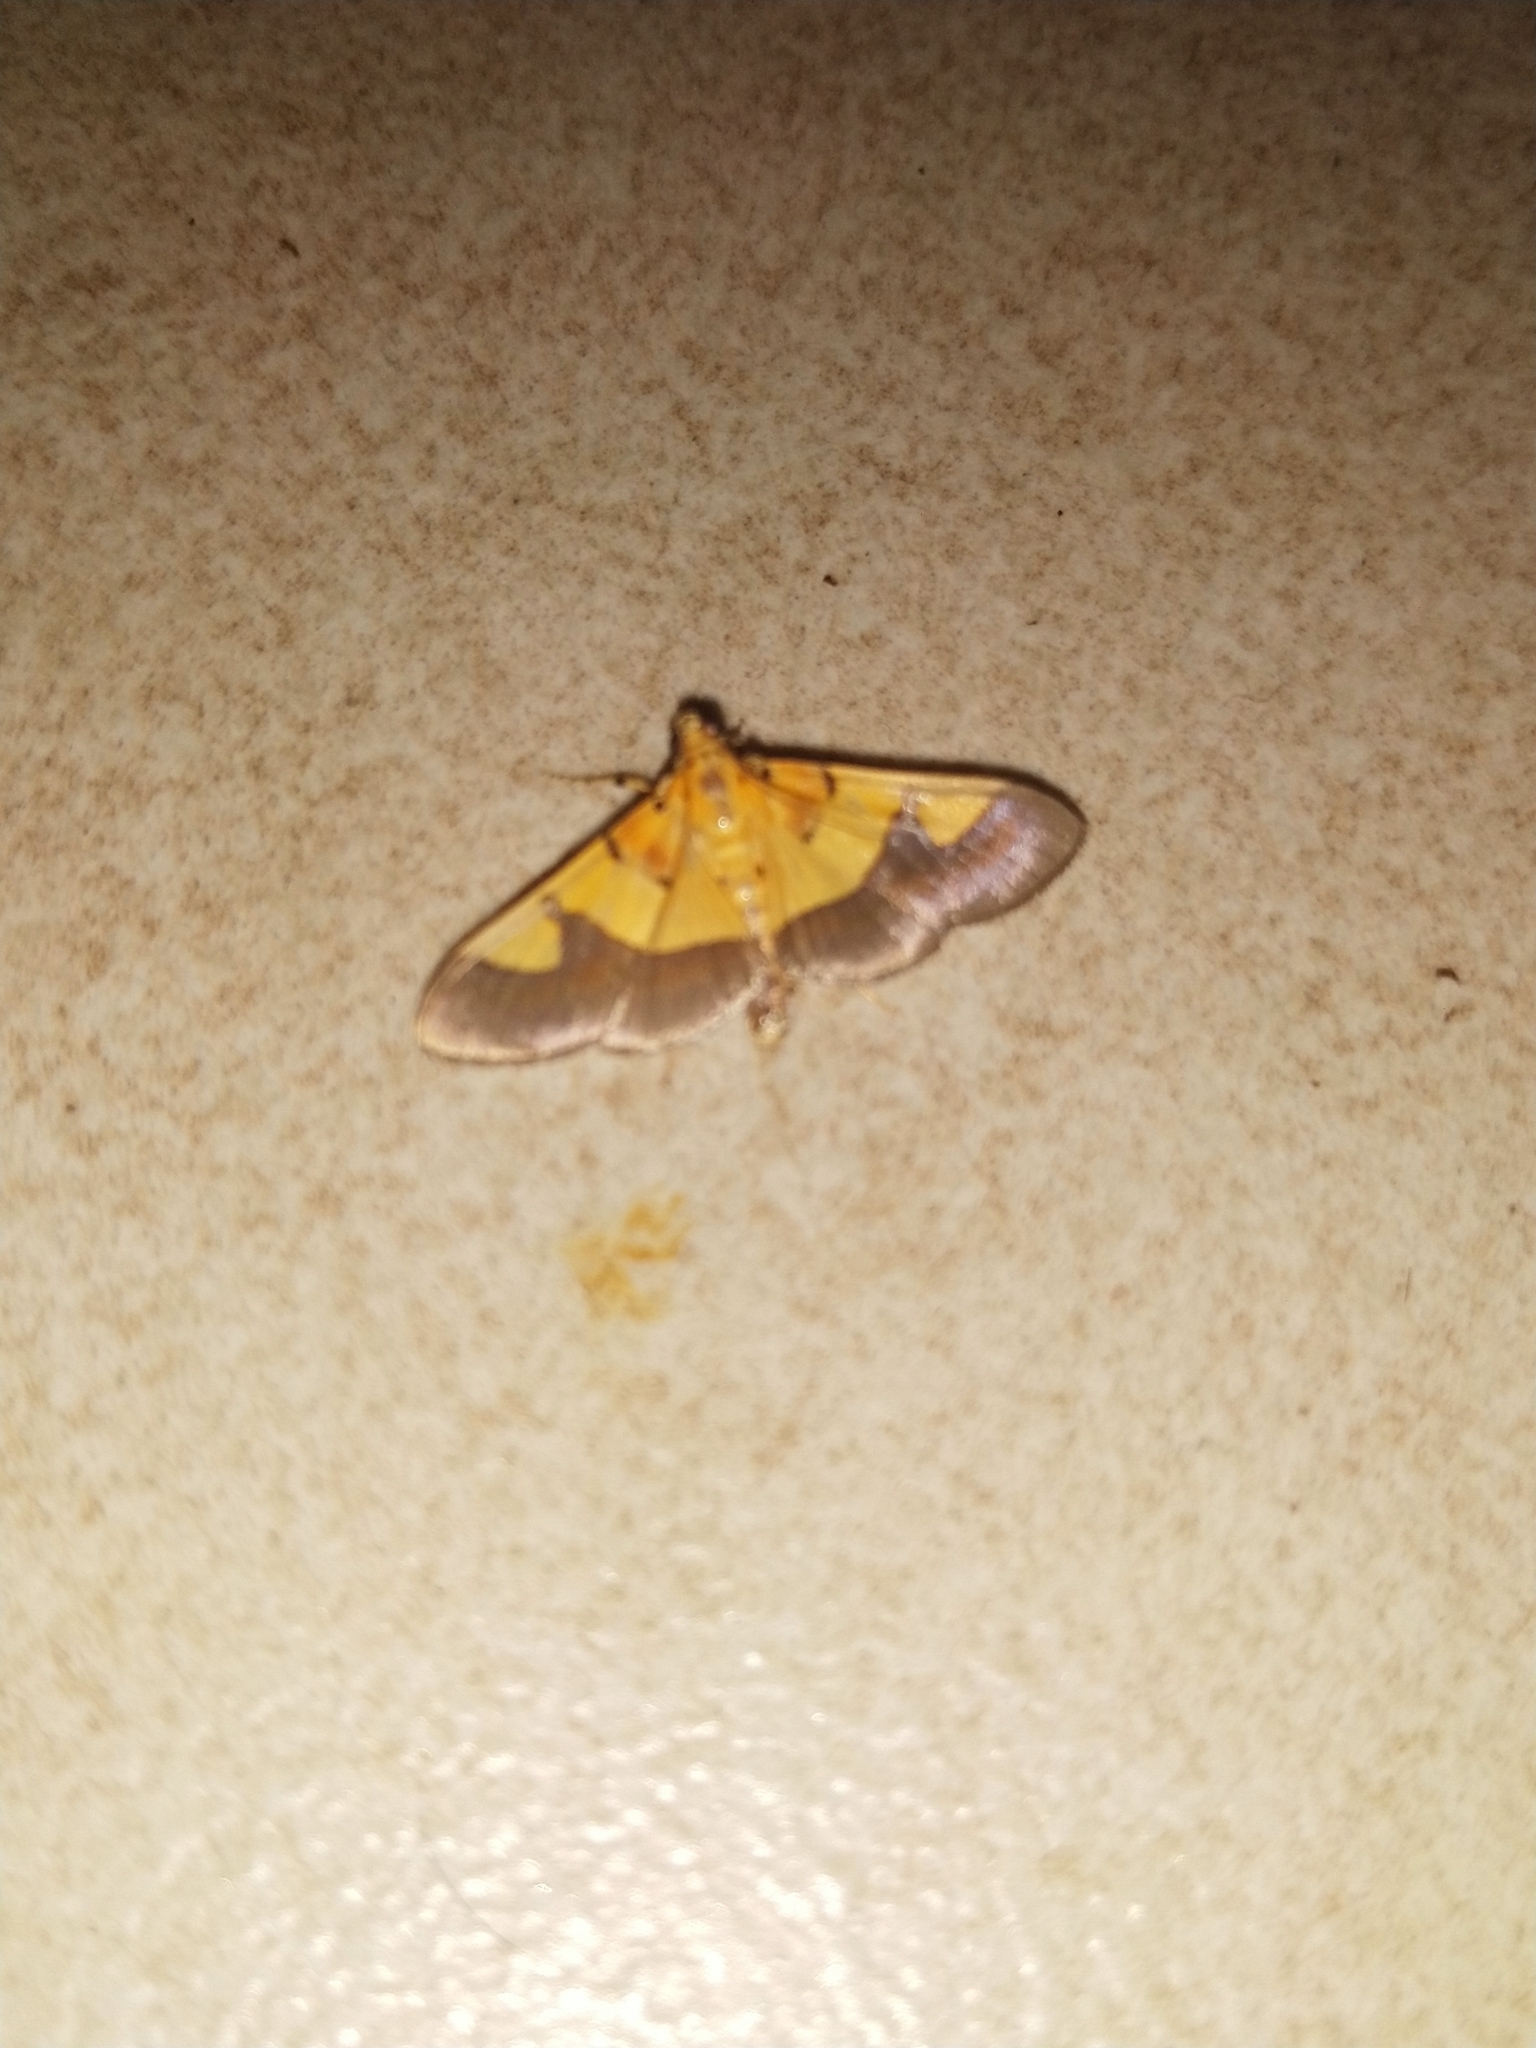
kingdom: Animalia
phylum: Arthropoda
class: Insecta
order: Lepidoptera
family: Crambidae
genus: Botyodes
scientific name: Botyodes
